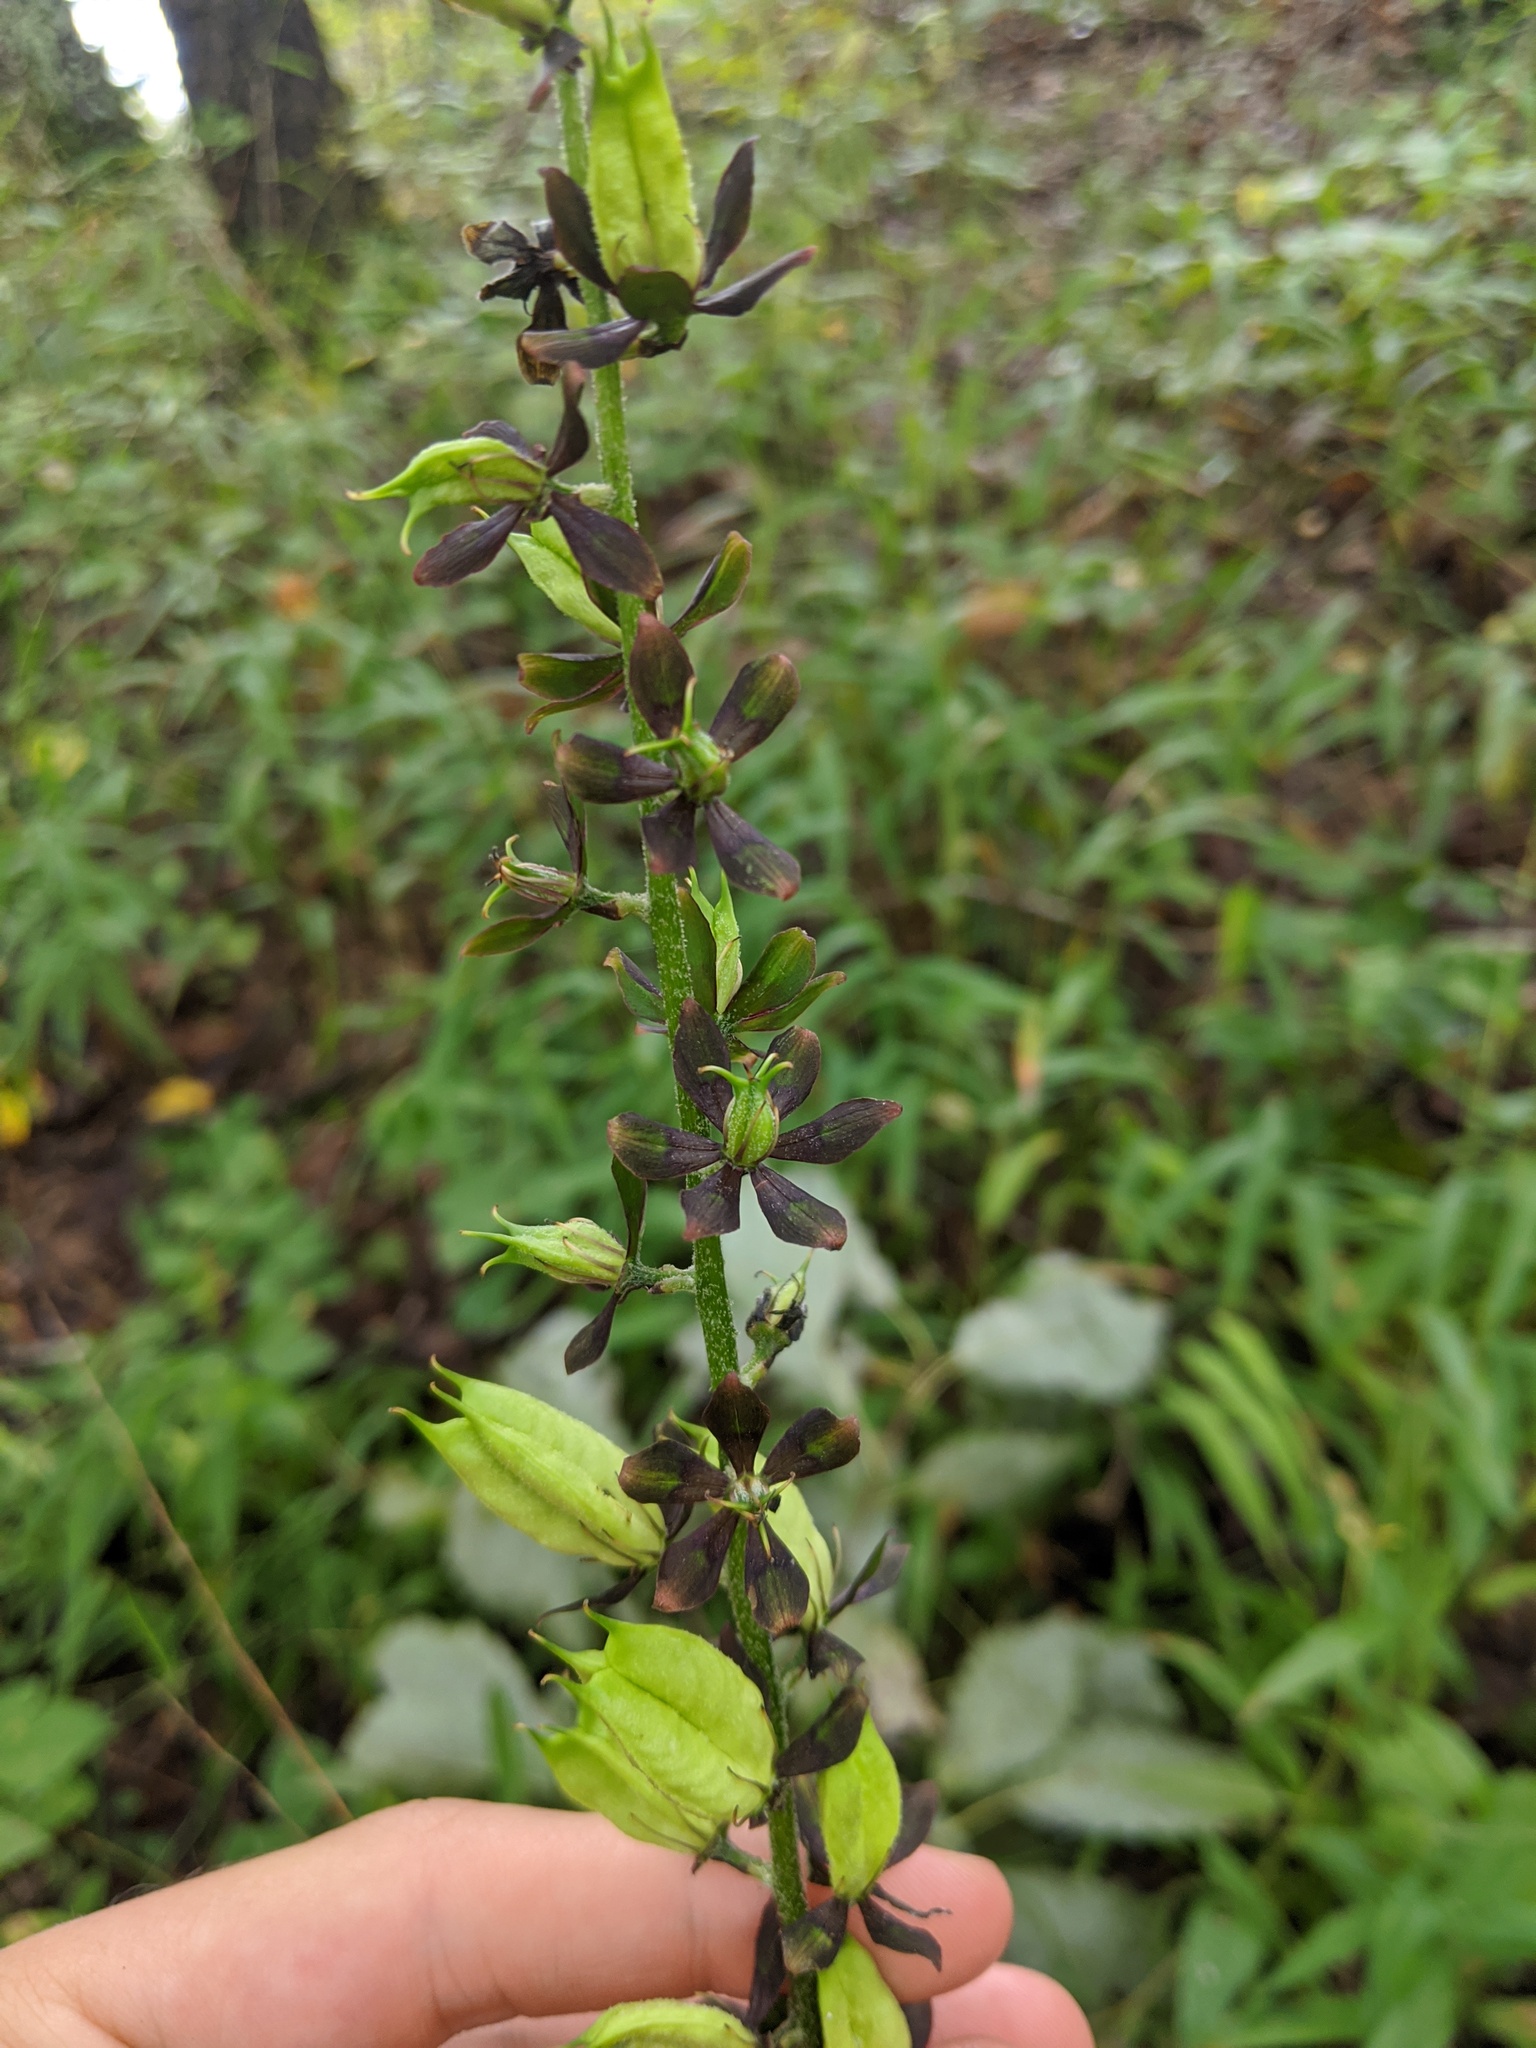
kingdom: Plantae
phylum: Tracheophyta
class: Liliopsida
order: Liliales
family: Melanthiaceae
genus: Veratrum
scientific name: Veratrum woodii
